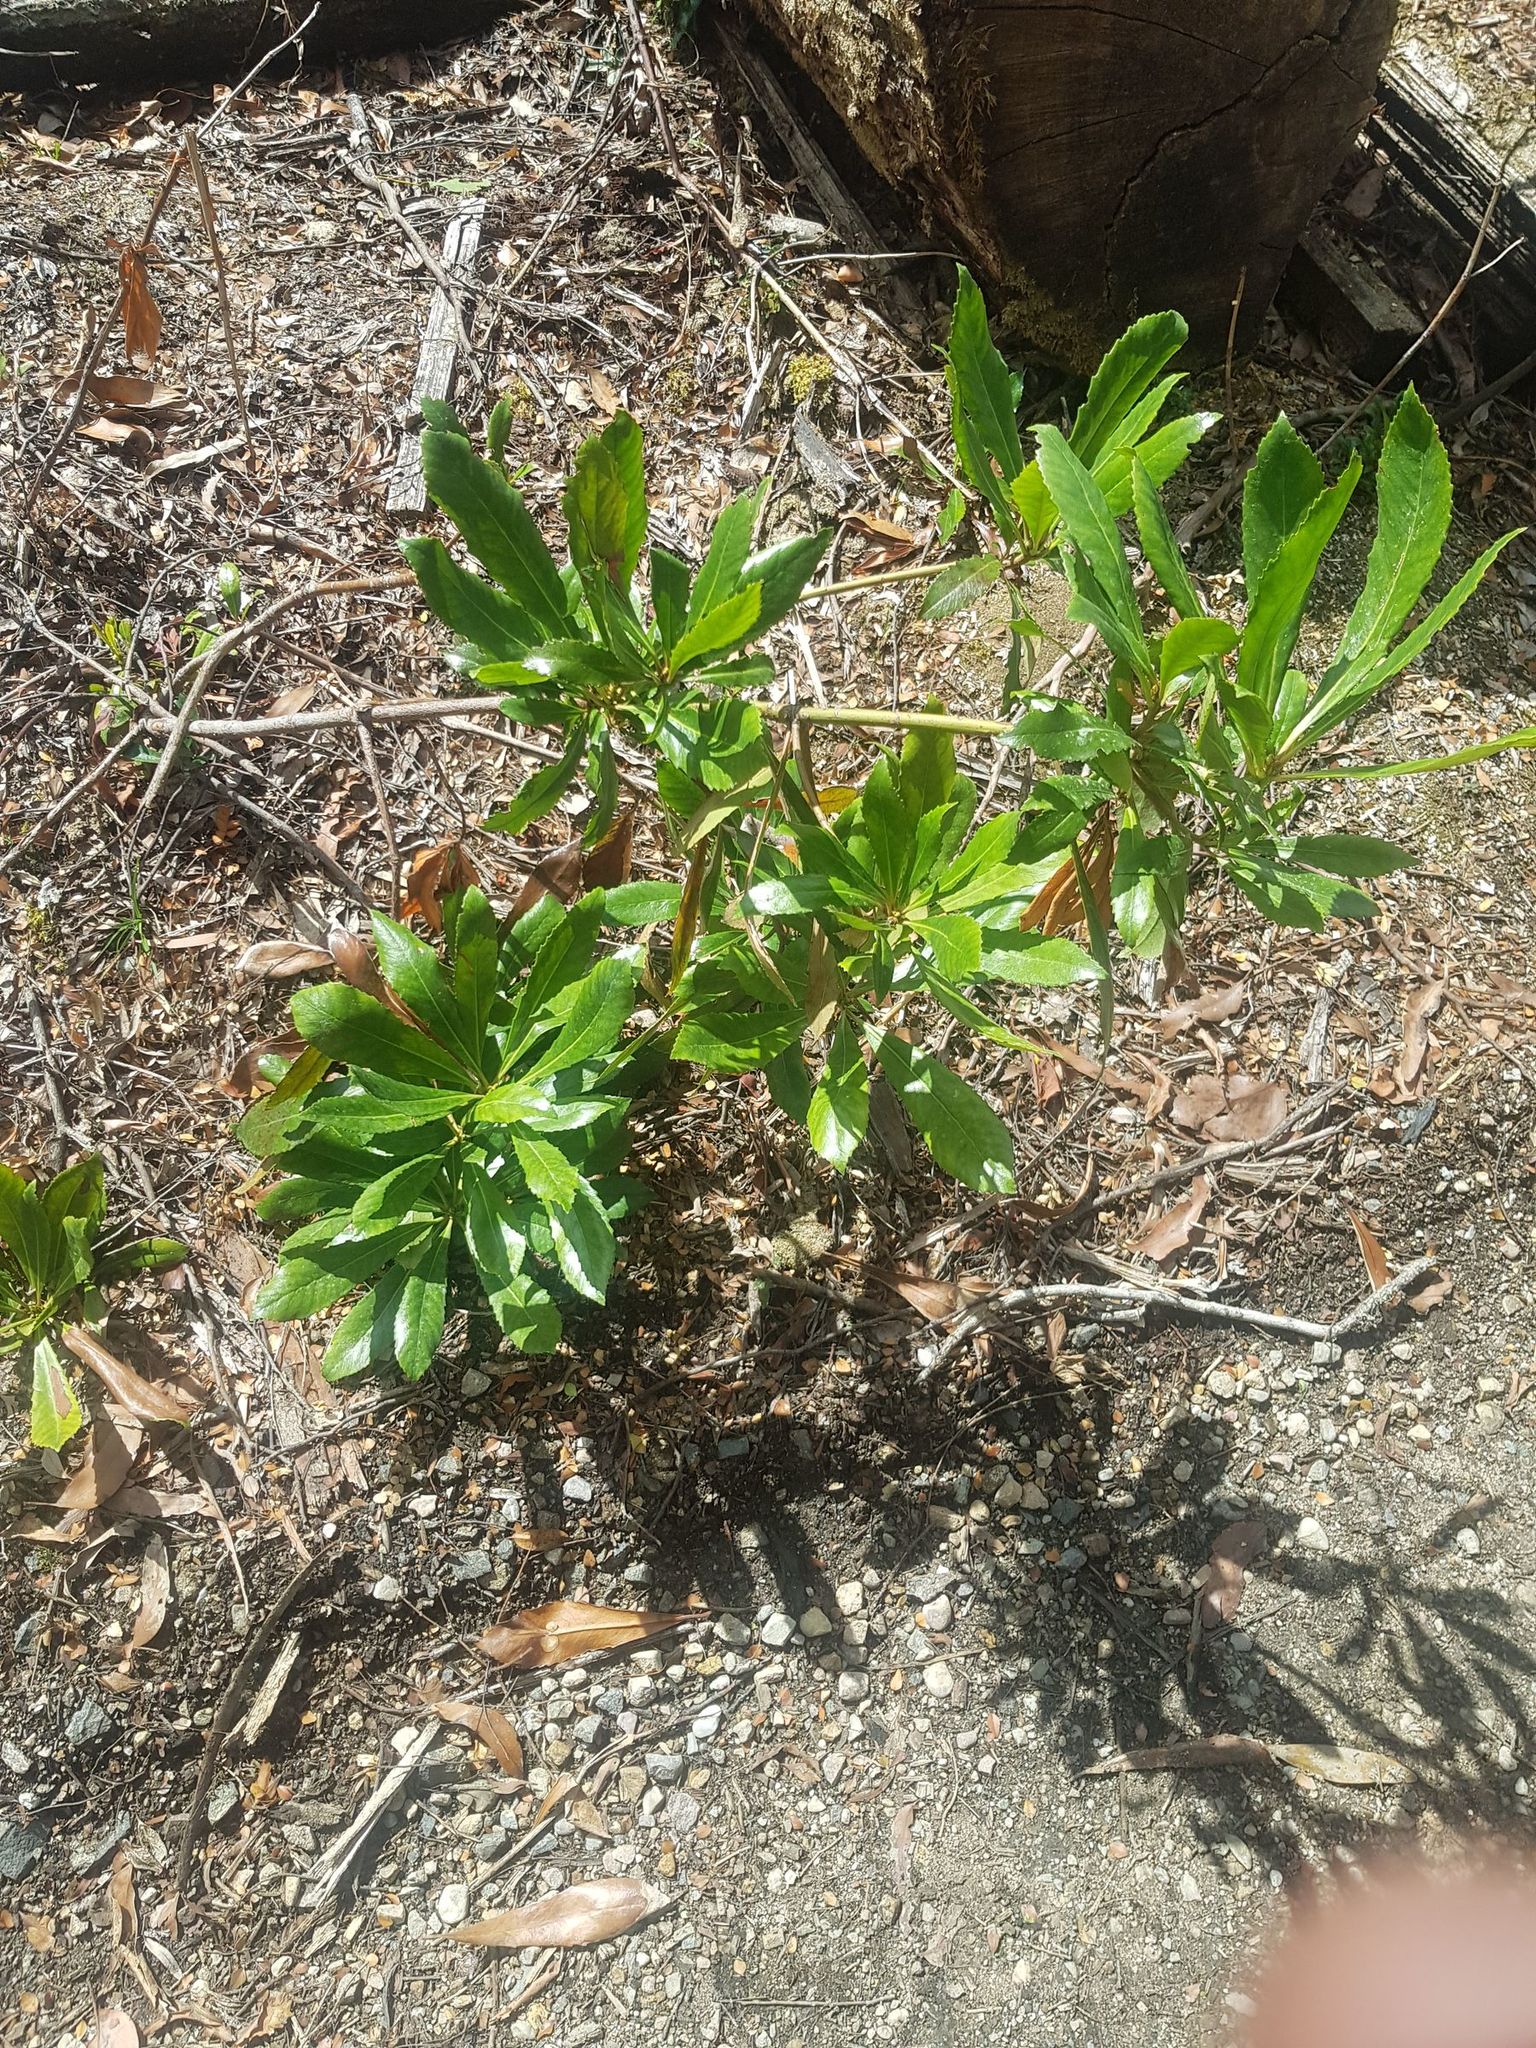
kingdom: Plantae
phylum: Tracheophyta
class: Magnoliopsida
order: Escalloniales
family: Escalloniaceae
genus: Anopterus
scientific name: Anopterus glandulosus
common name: Tasmanian-laurel
